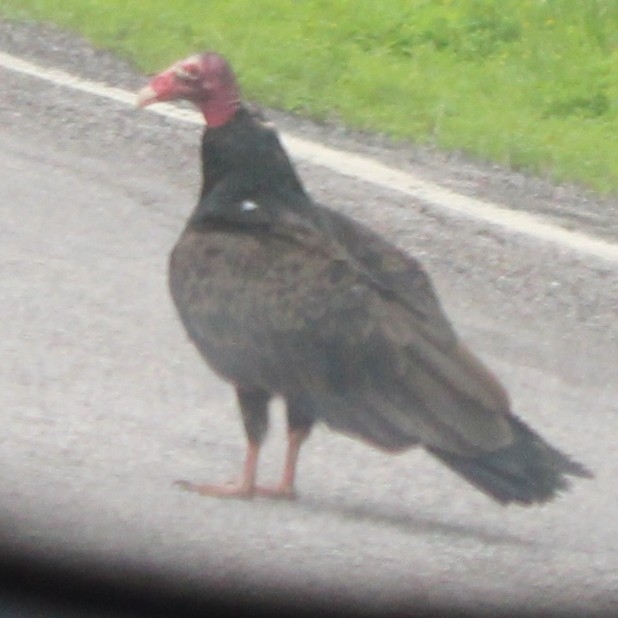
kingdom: Animalia
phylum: Chordata
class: Aves
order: Accipitriformes
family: Cathartidae
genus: Cathartes
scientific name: Cathartes aura
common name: Turkey vulture
